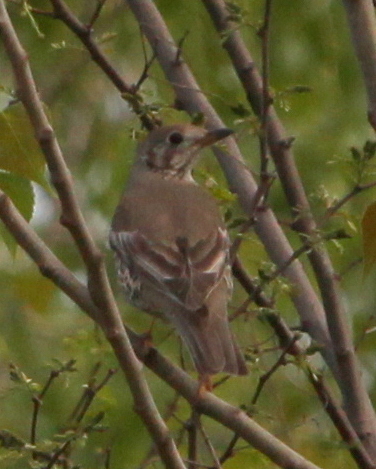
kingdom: Animalia
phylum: Chordata
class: Aves
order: Passeriformes
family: Turdidae
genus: Turdus
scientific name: Turdus viscivorus
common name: Mistle thrush
